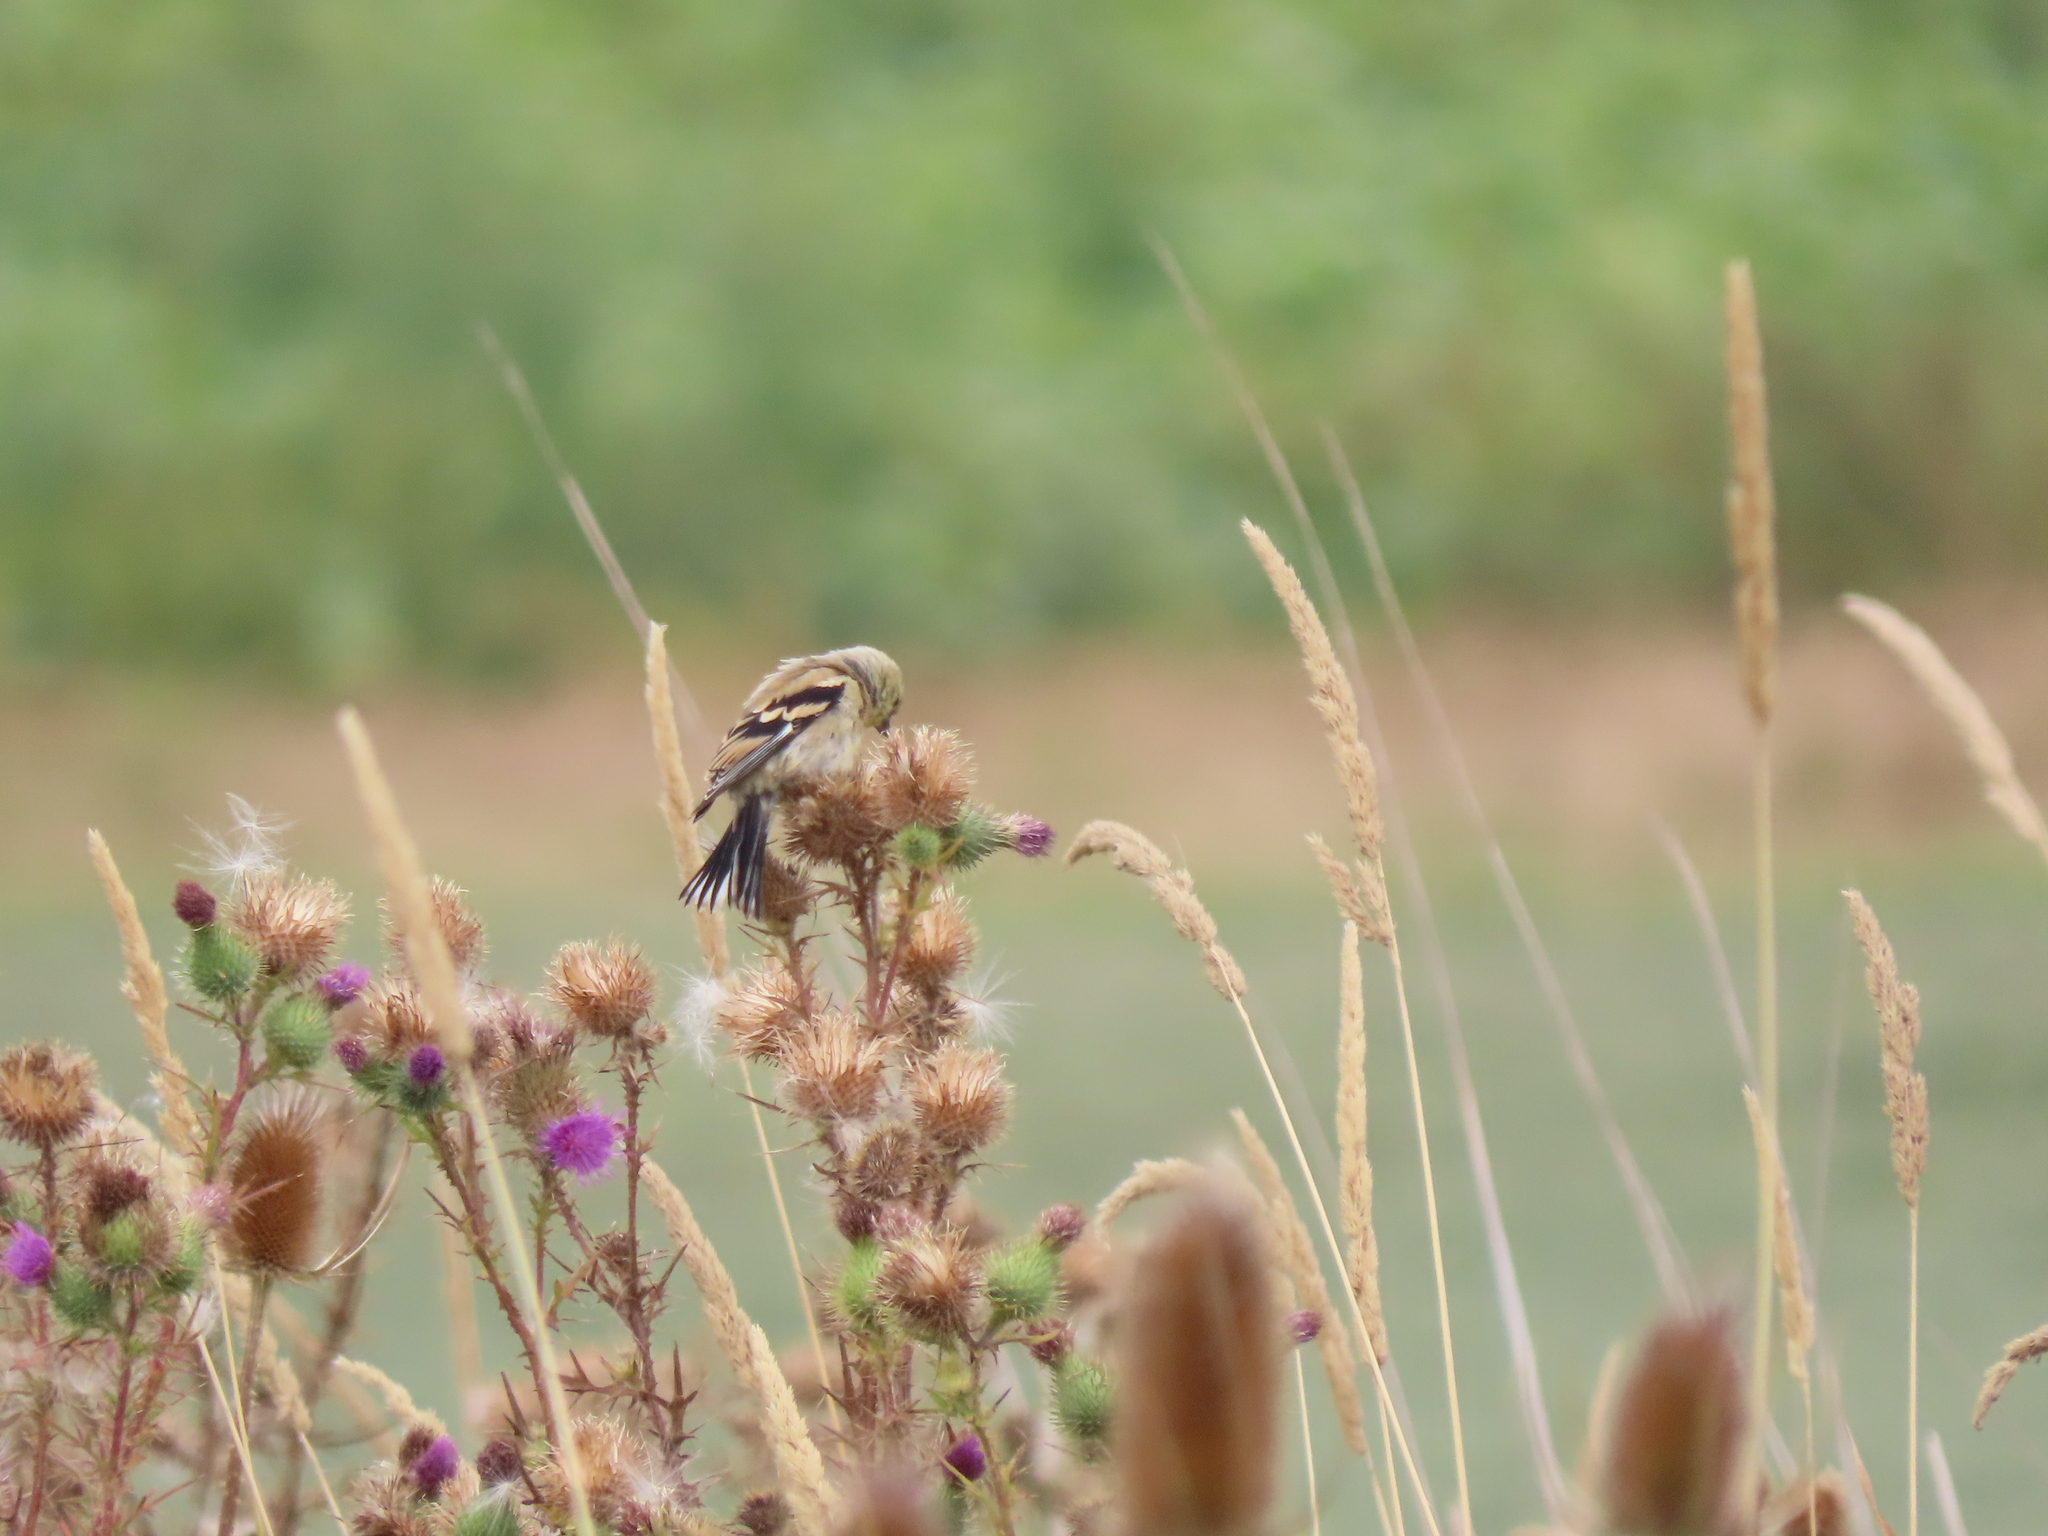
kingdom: Animalia
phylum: Chordata
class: Aves
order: Passeriformes
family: Fringillidae
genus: Spinus
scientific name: Spinus tristis
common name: American goldfinch
